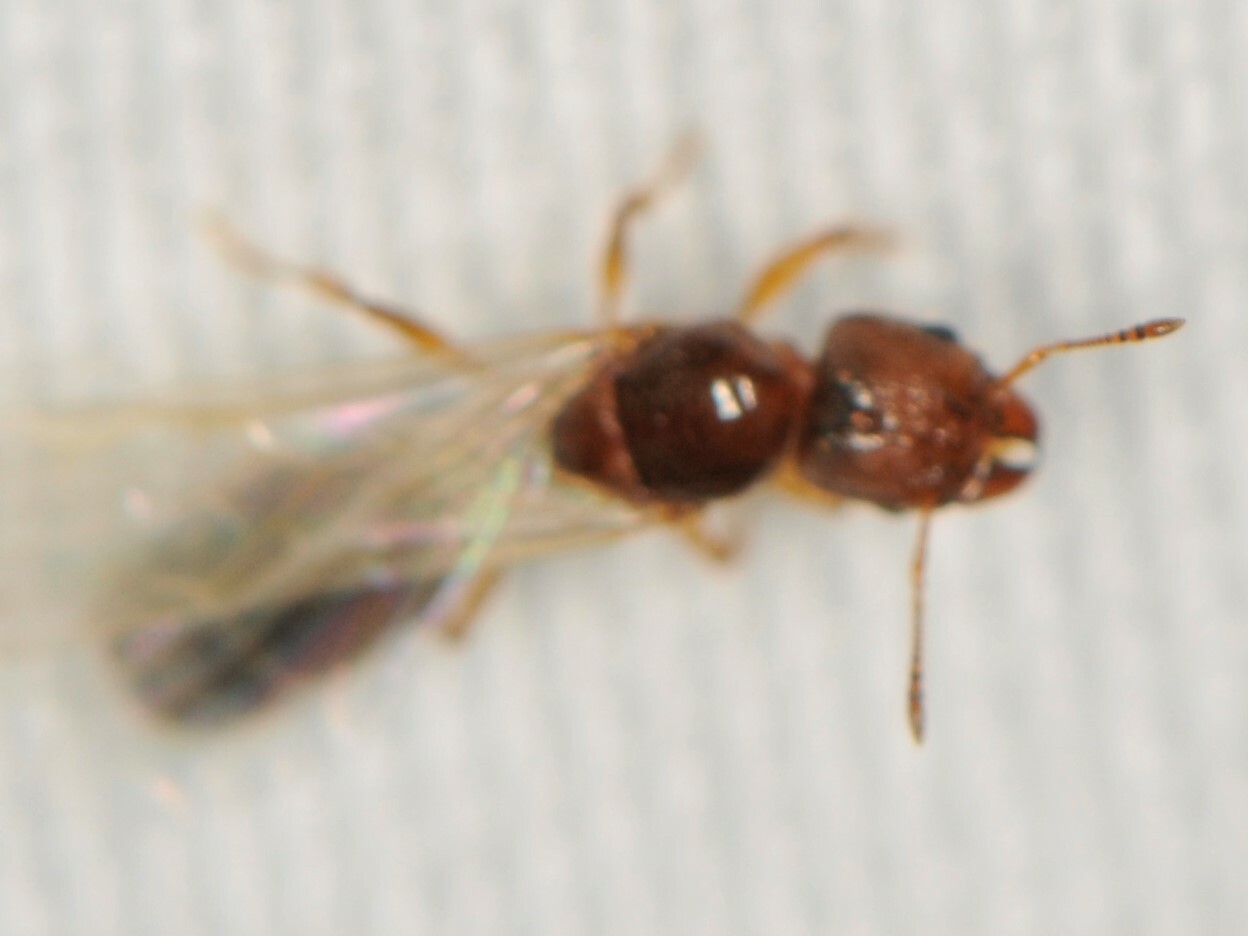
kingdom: Animalia
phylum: Arthropoda
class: Insecta
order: Hymenoptera
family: Formicidae
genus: Pheidole
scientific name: Pheidole
